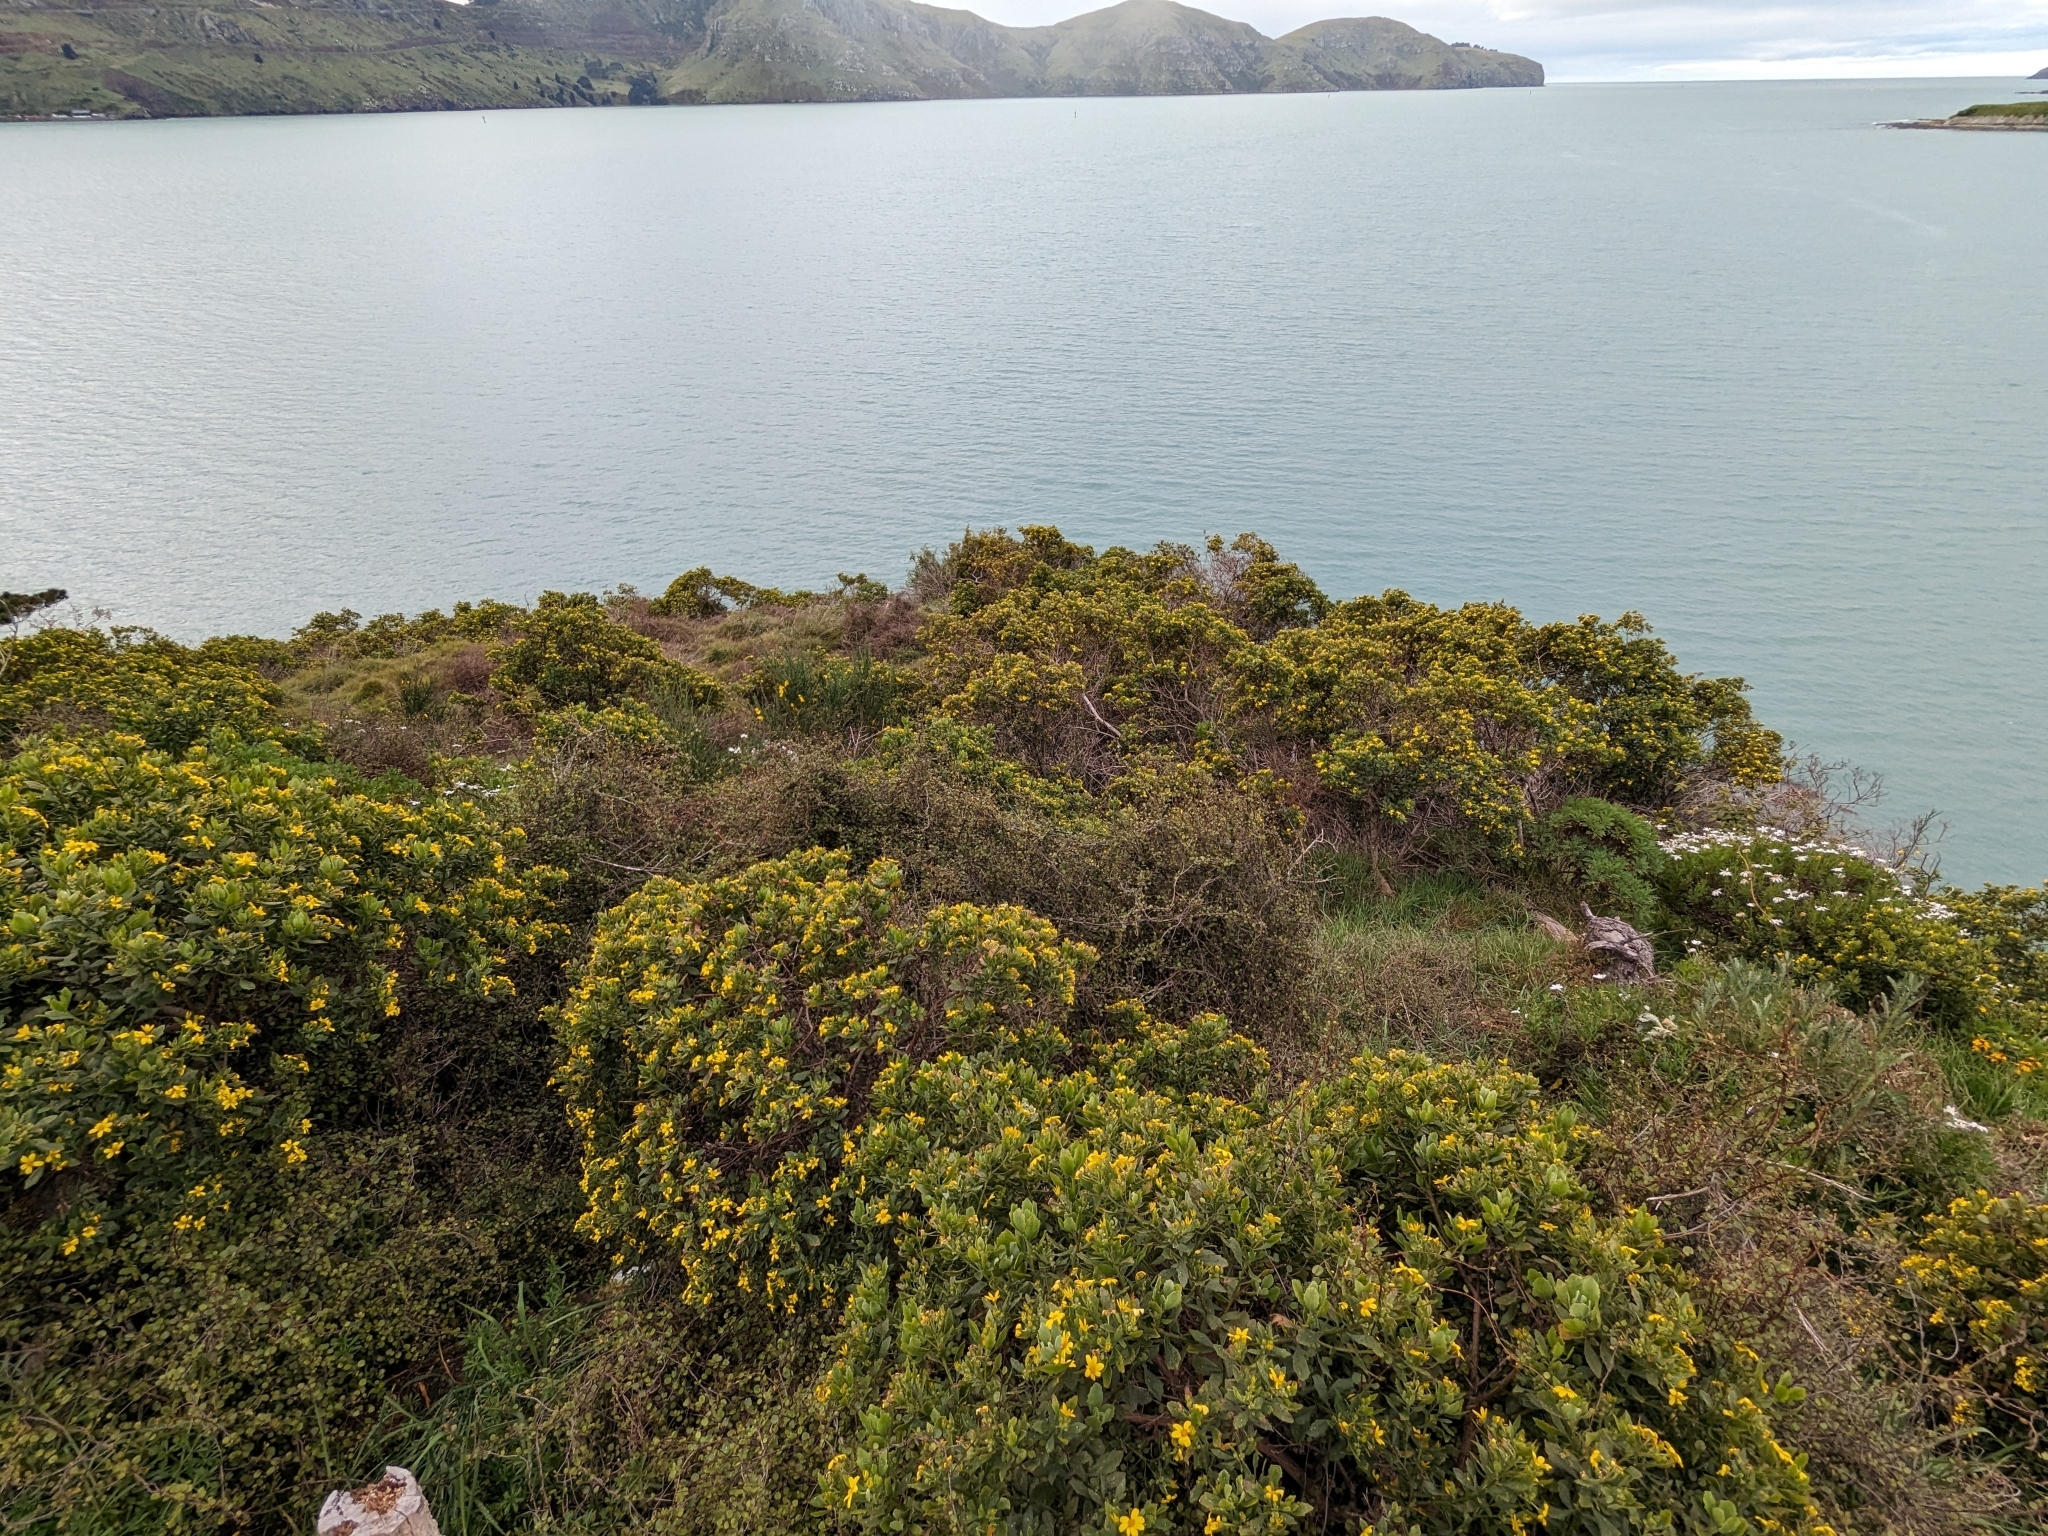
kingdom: Plantae
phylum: Tracheophyta
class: Magnoliopsida
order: Asterales
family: Asteraceae
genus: Osteospermum
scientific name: Osteospermum moniliferum
